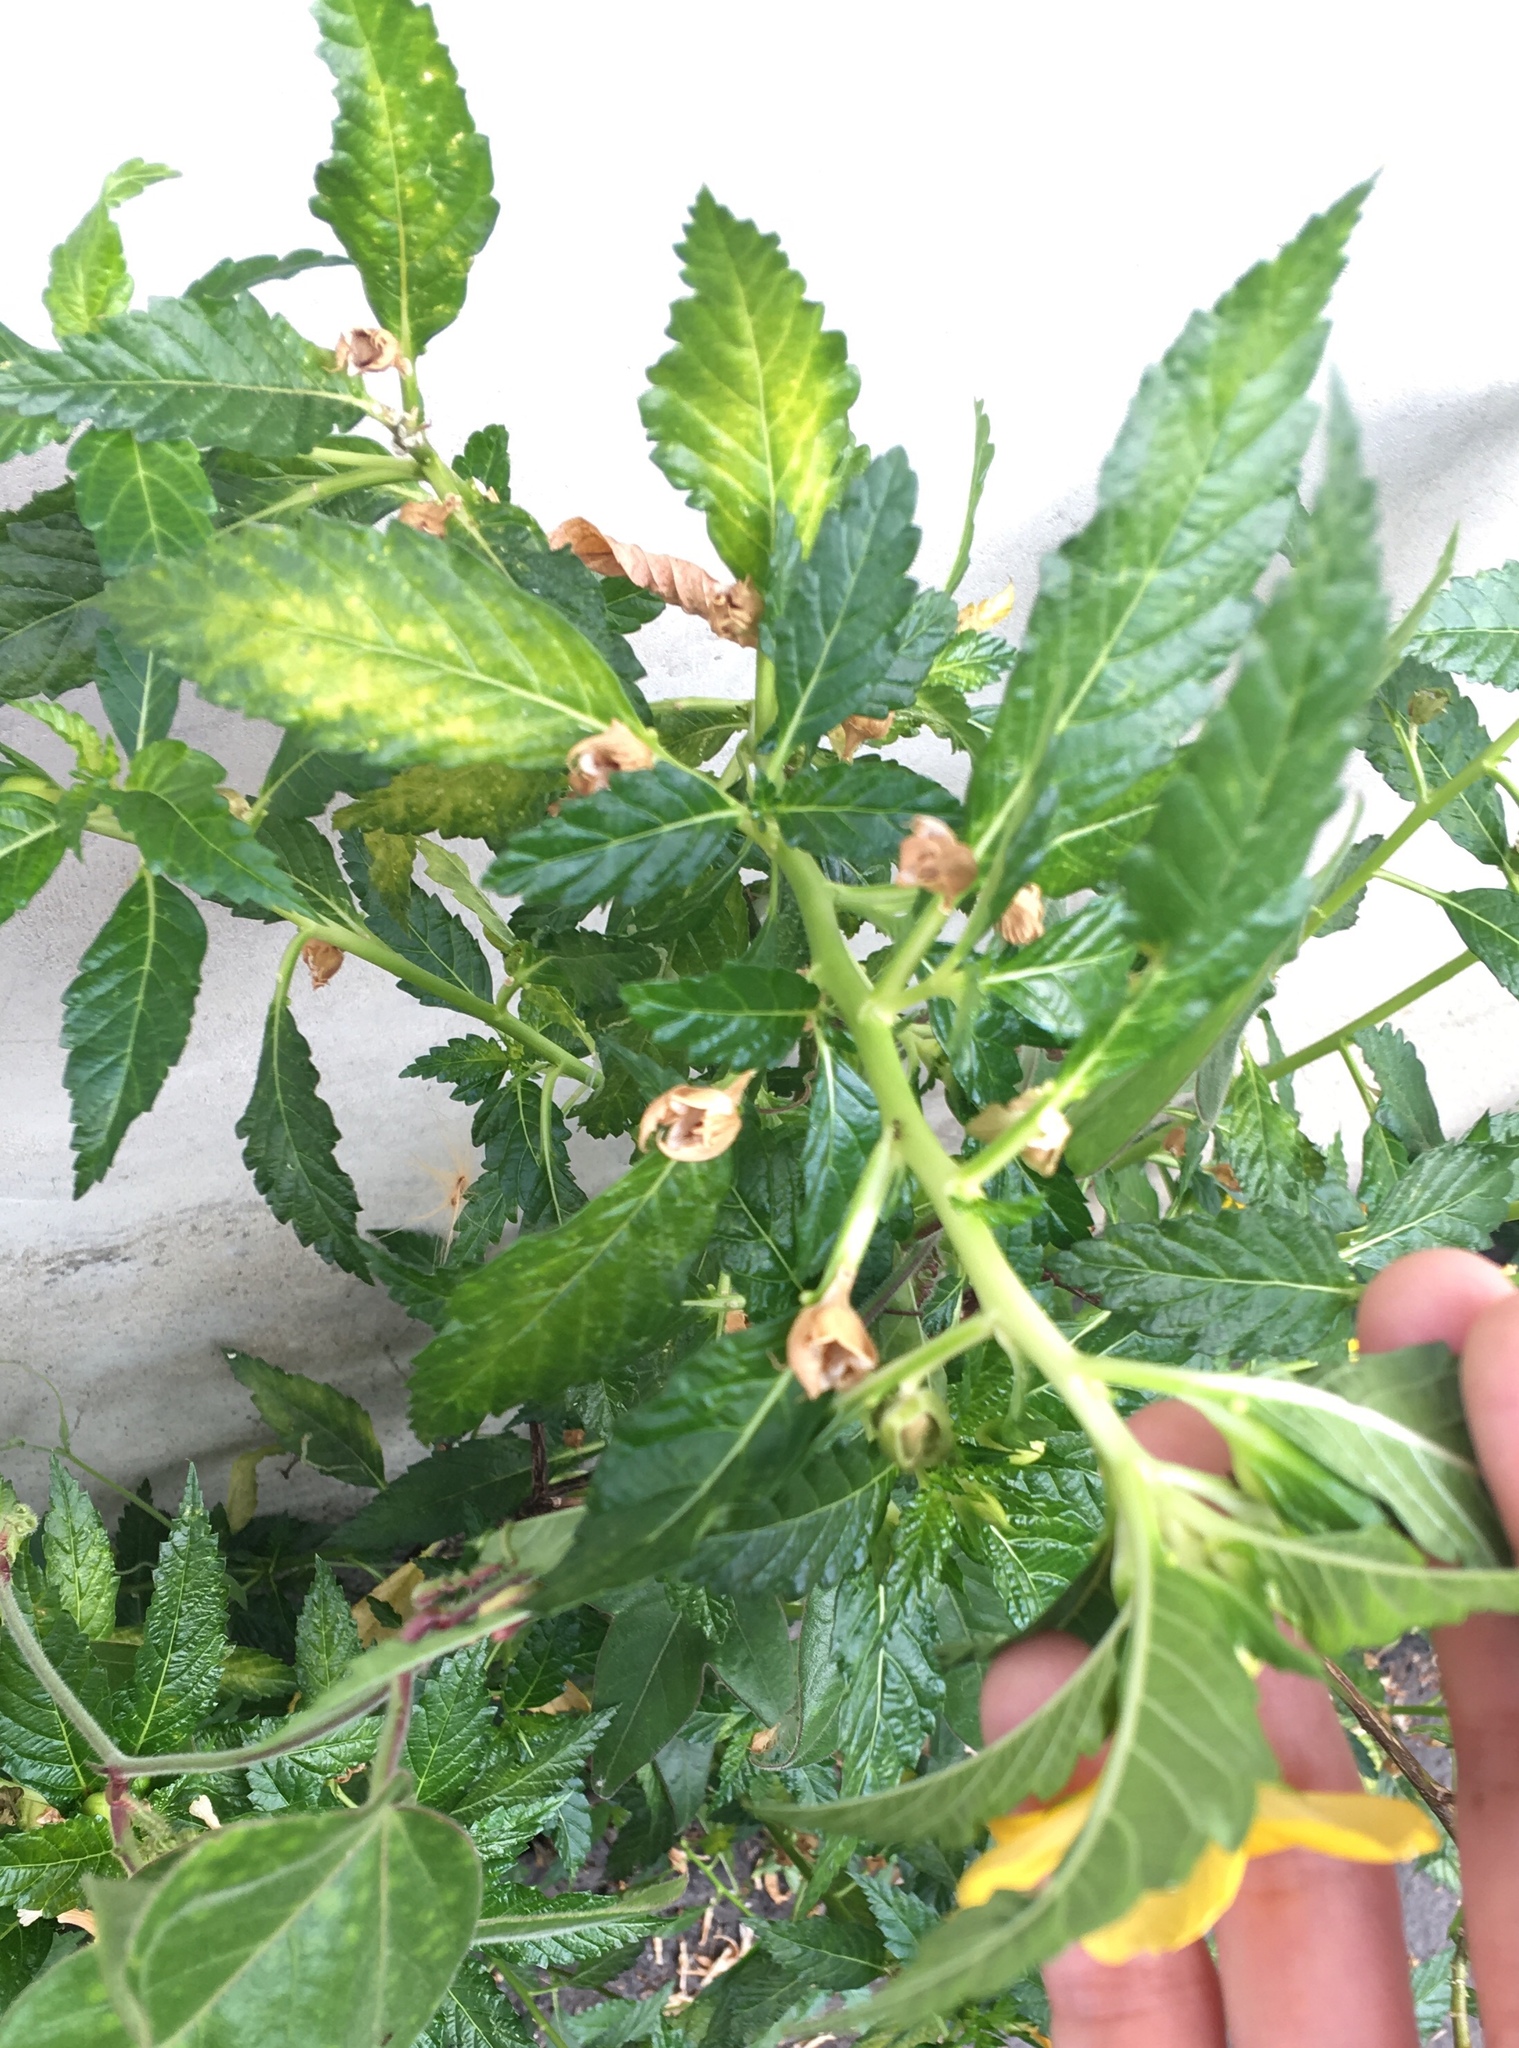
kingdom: Plantae
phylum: Tracheophyta
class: Magnoliopsida
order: Malpighiales
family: Turneraceae
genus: Turnera
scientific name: Turnera ulmifolia
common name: Ramgoat dashalong
